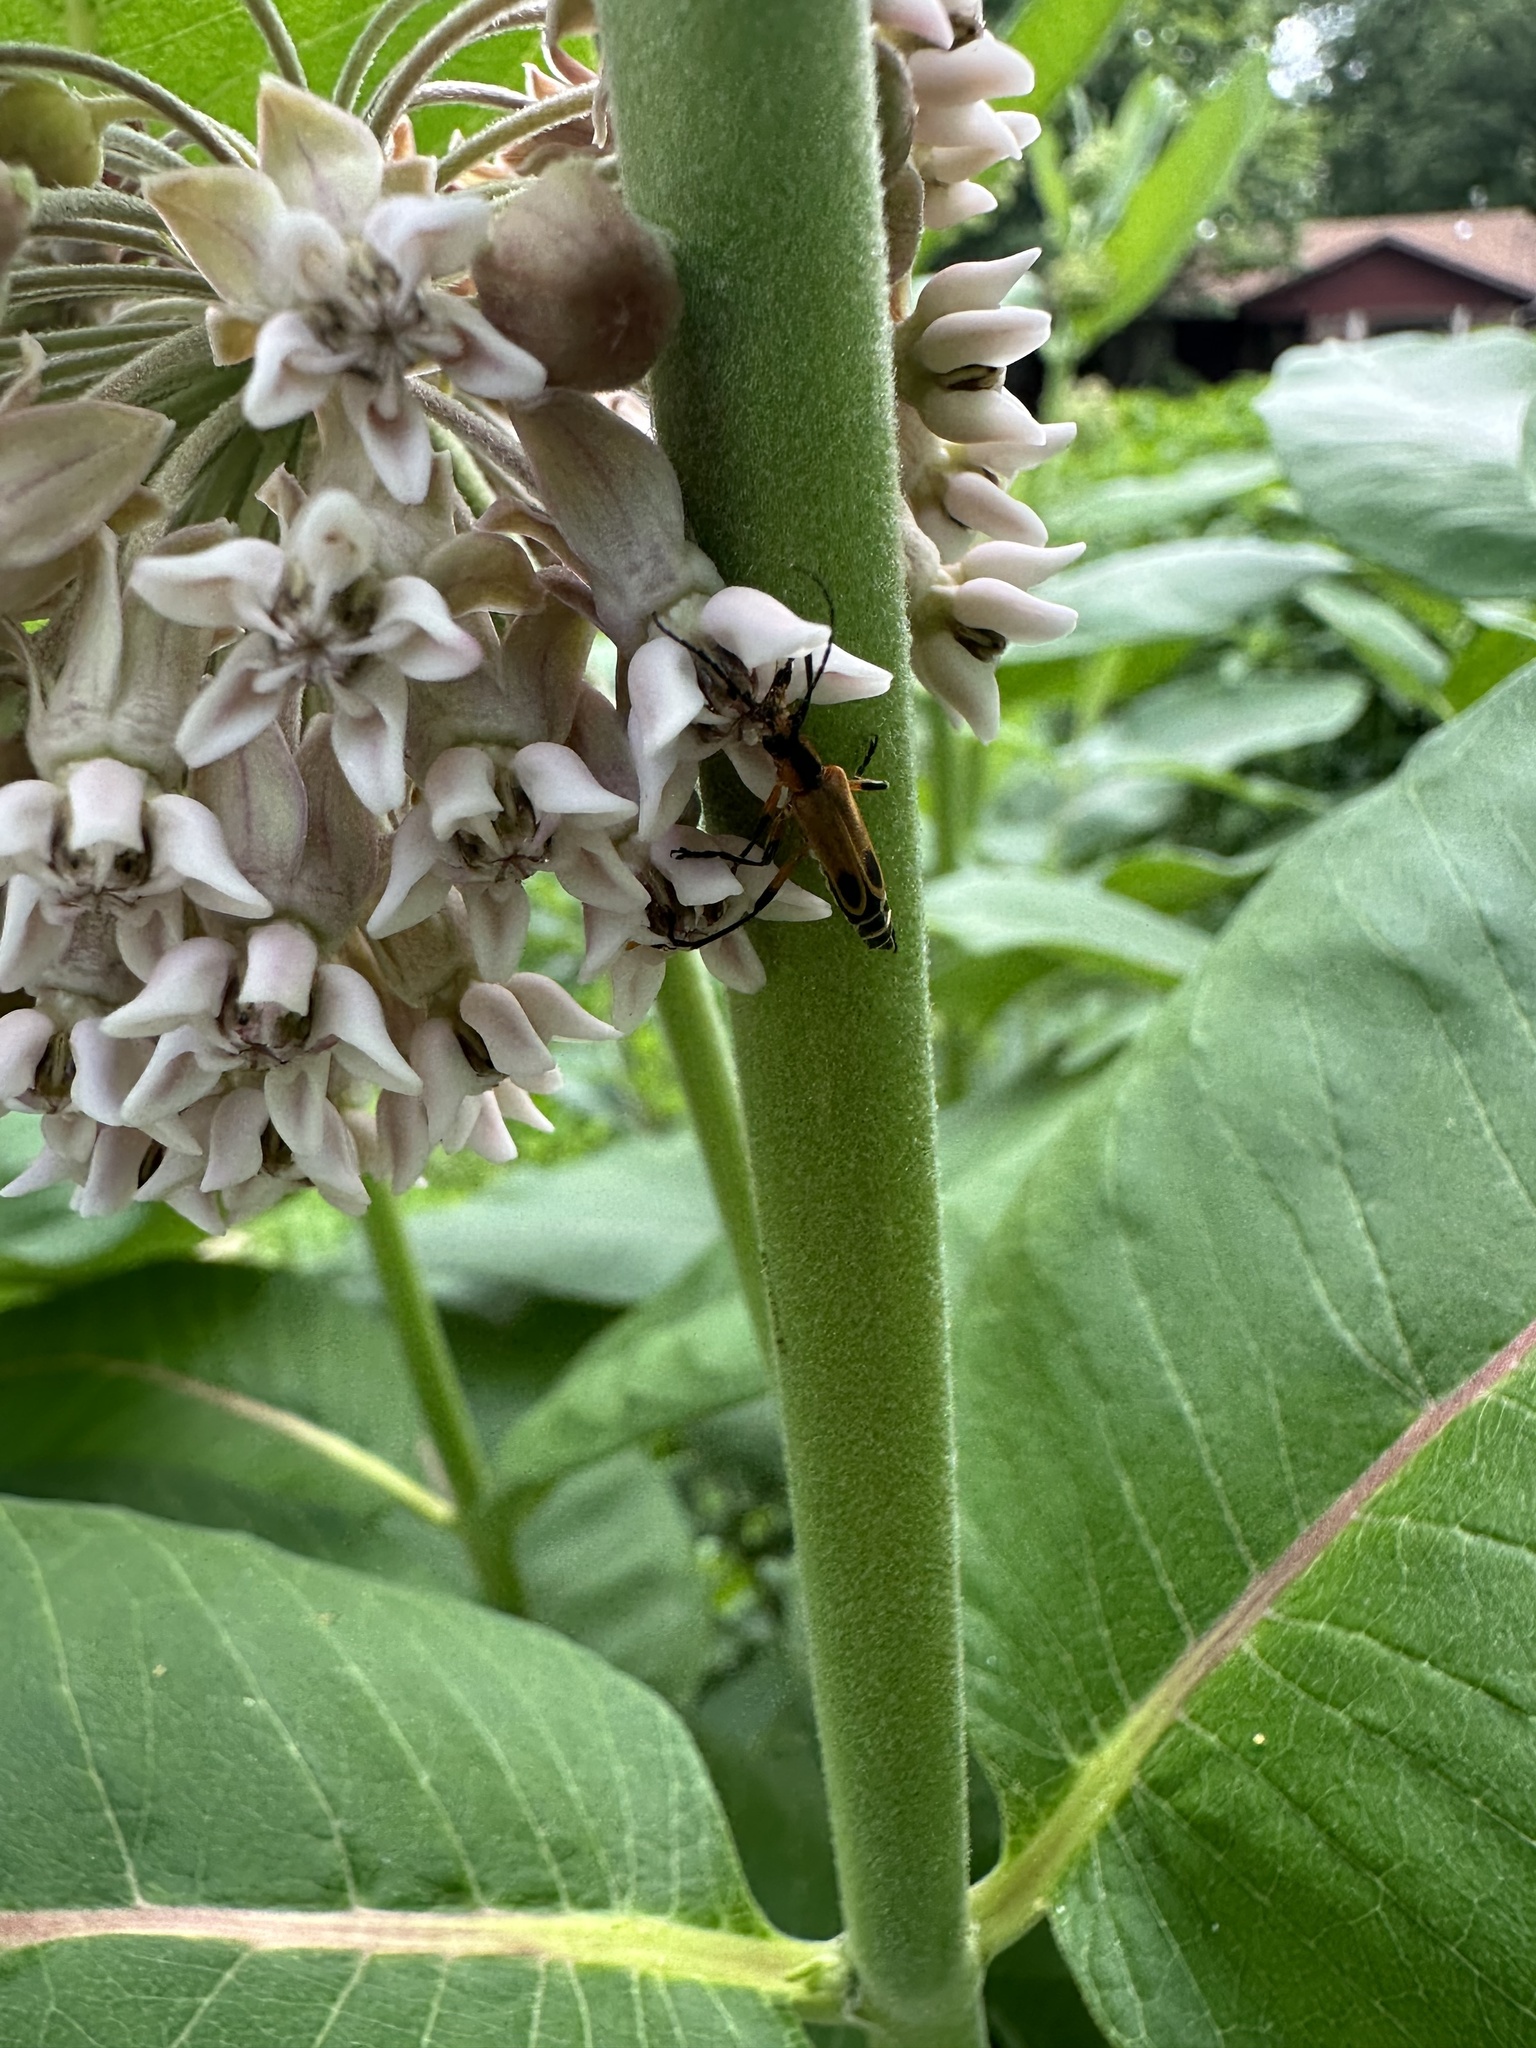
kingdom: Animalia
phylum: Arthropoda
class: Insecta
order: Coleoptera
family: Cantharidae
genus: Chauliognathus
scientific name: Chauliognathus marginatus
